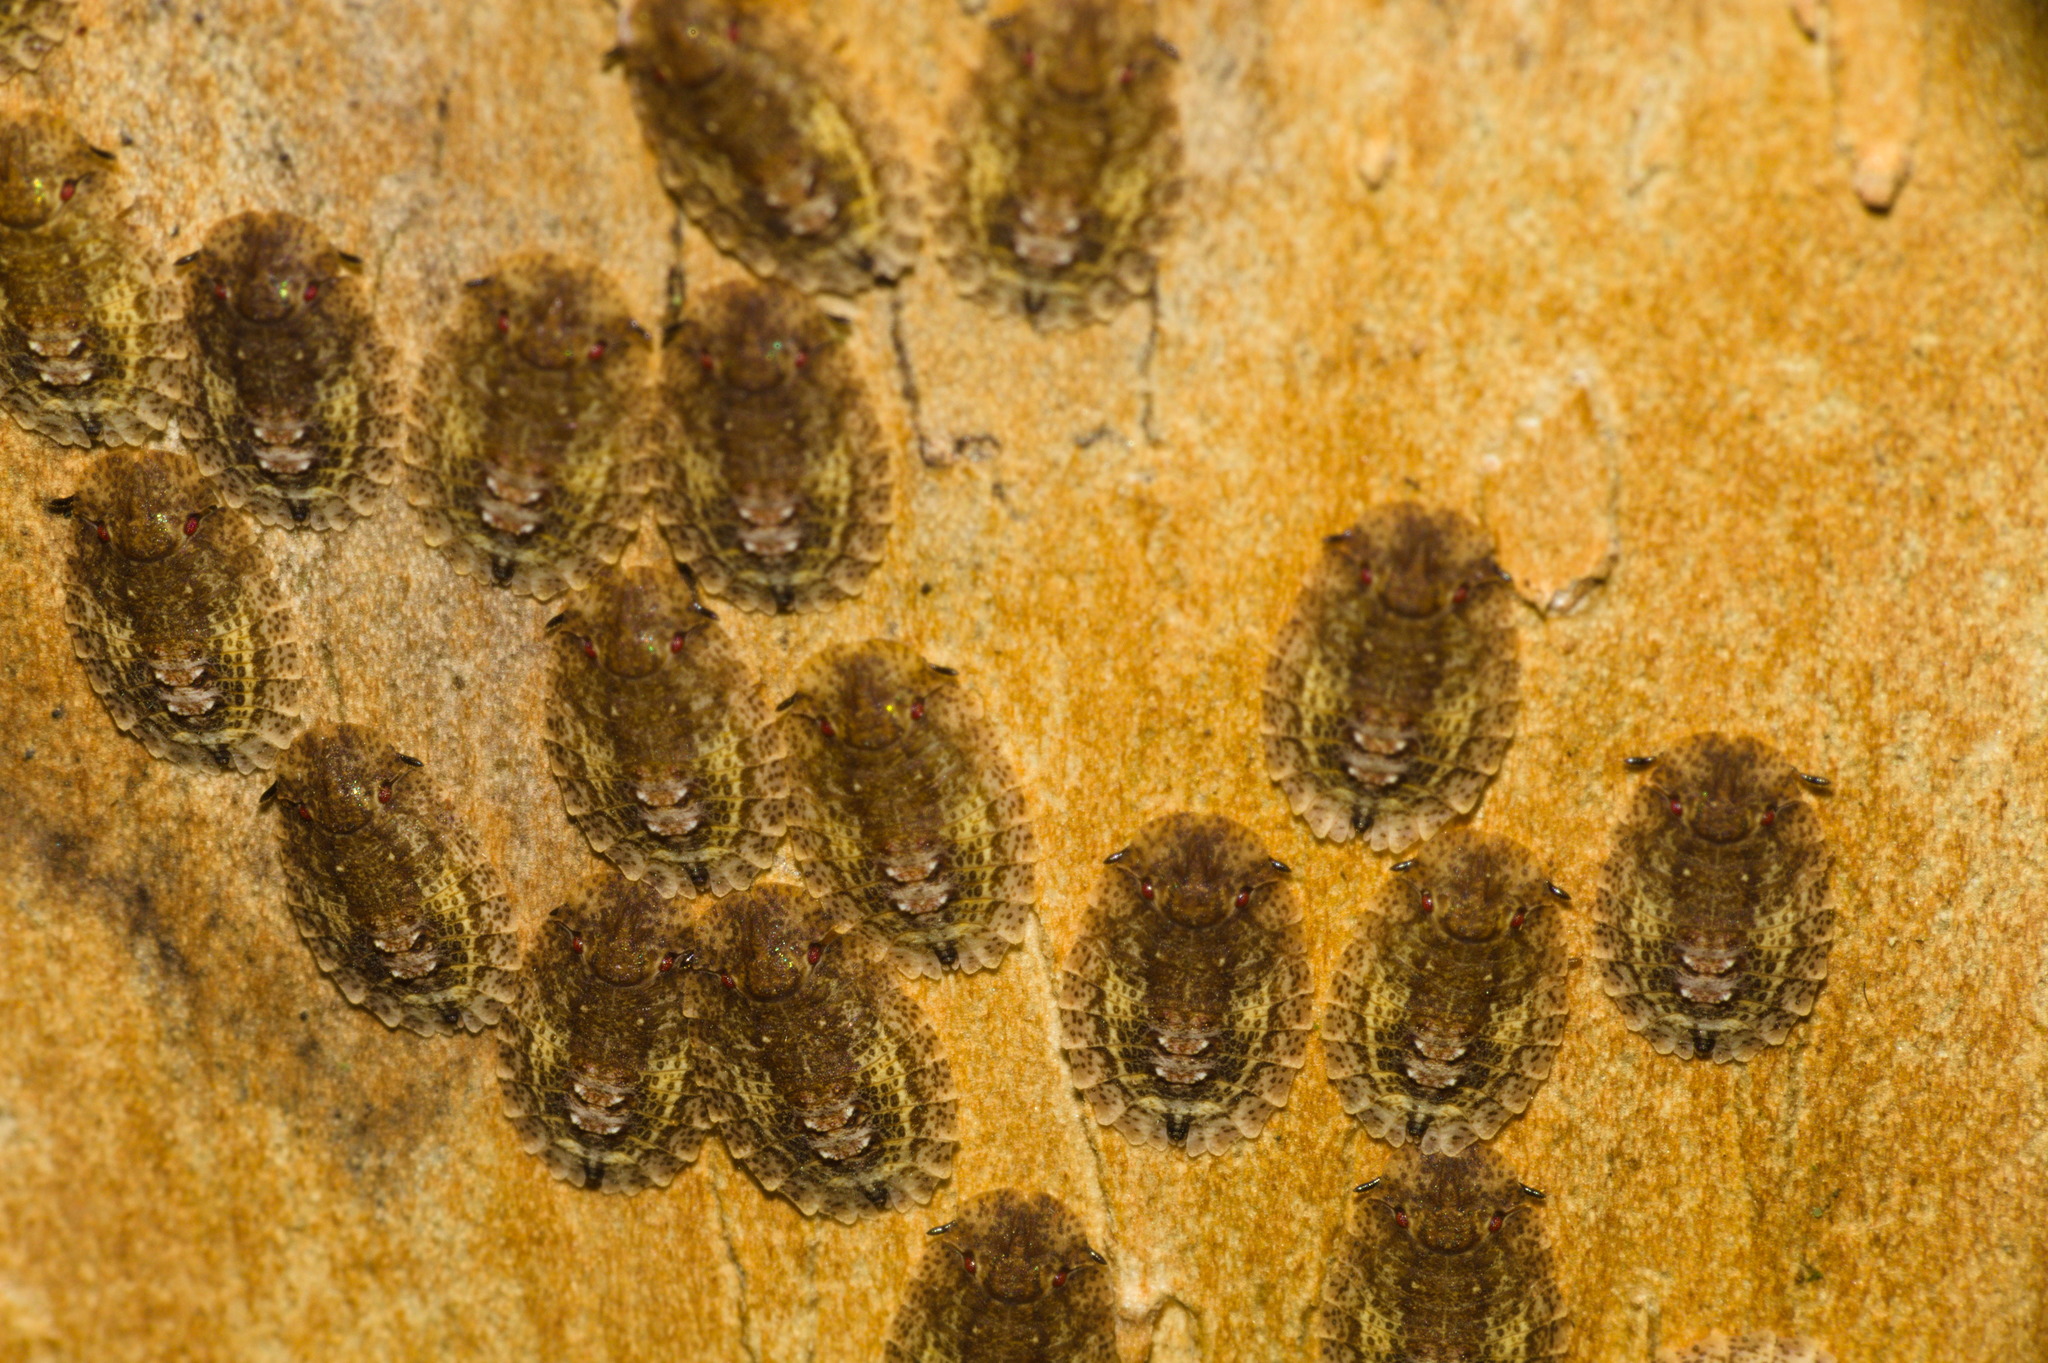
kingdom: Animalia
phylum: Arthropoda
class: Insecta
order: Hemiptera
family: Phleides
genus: Phloea
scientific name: Phloea
